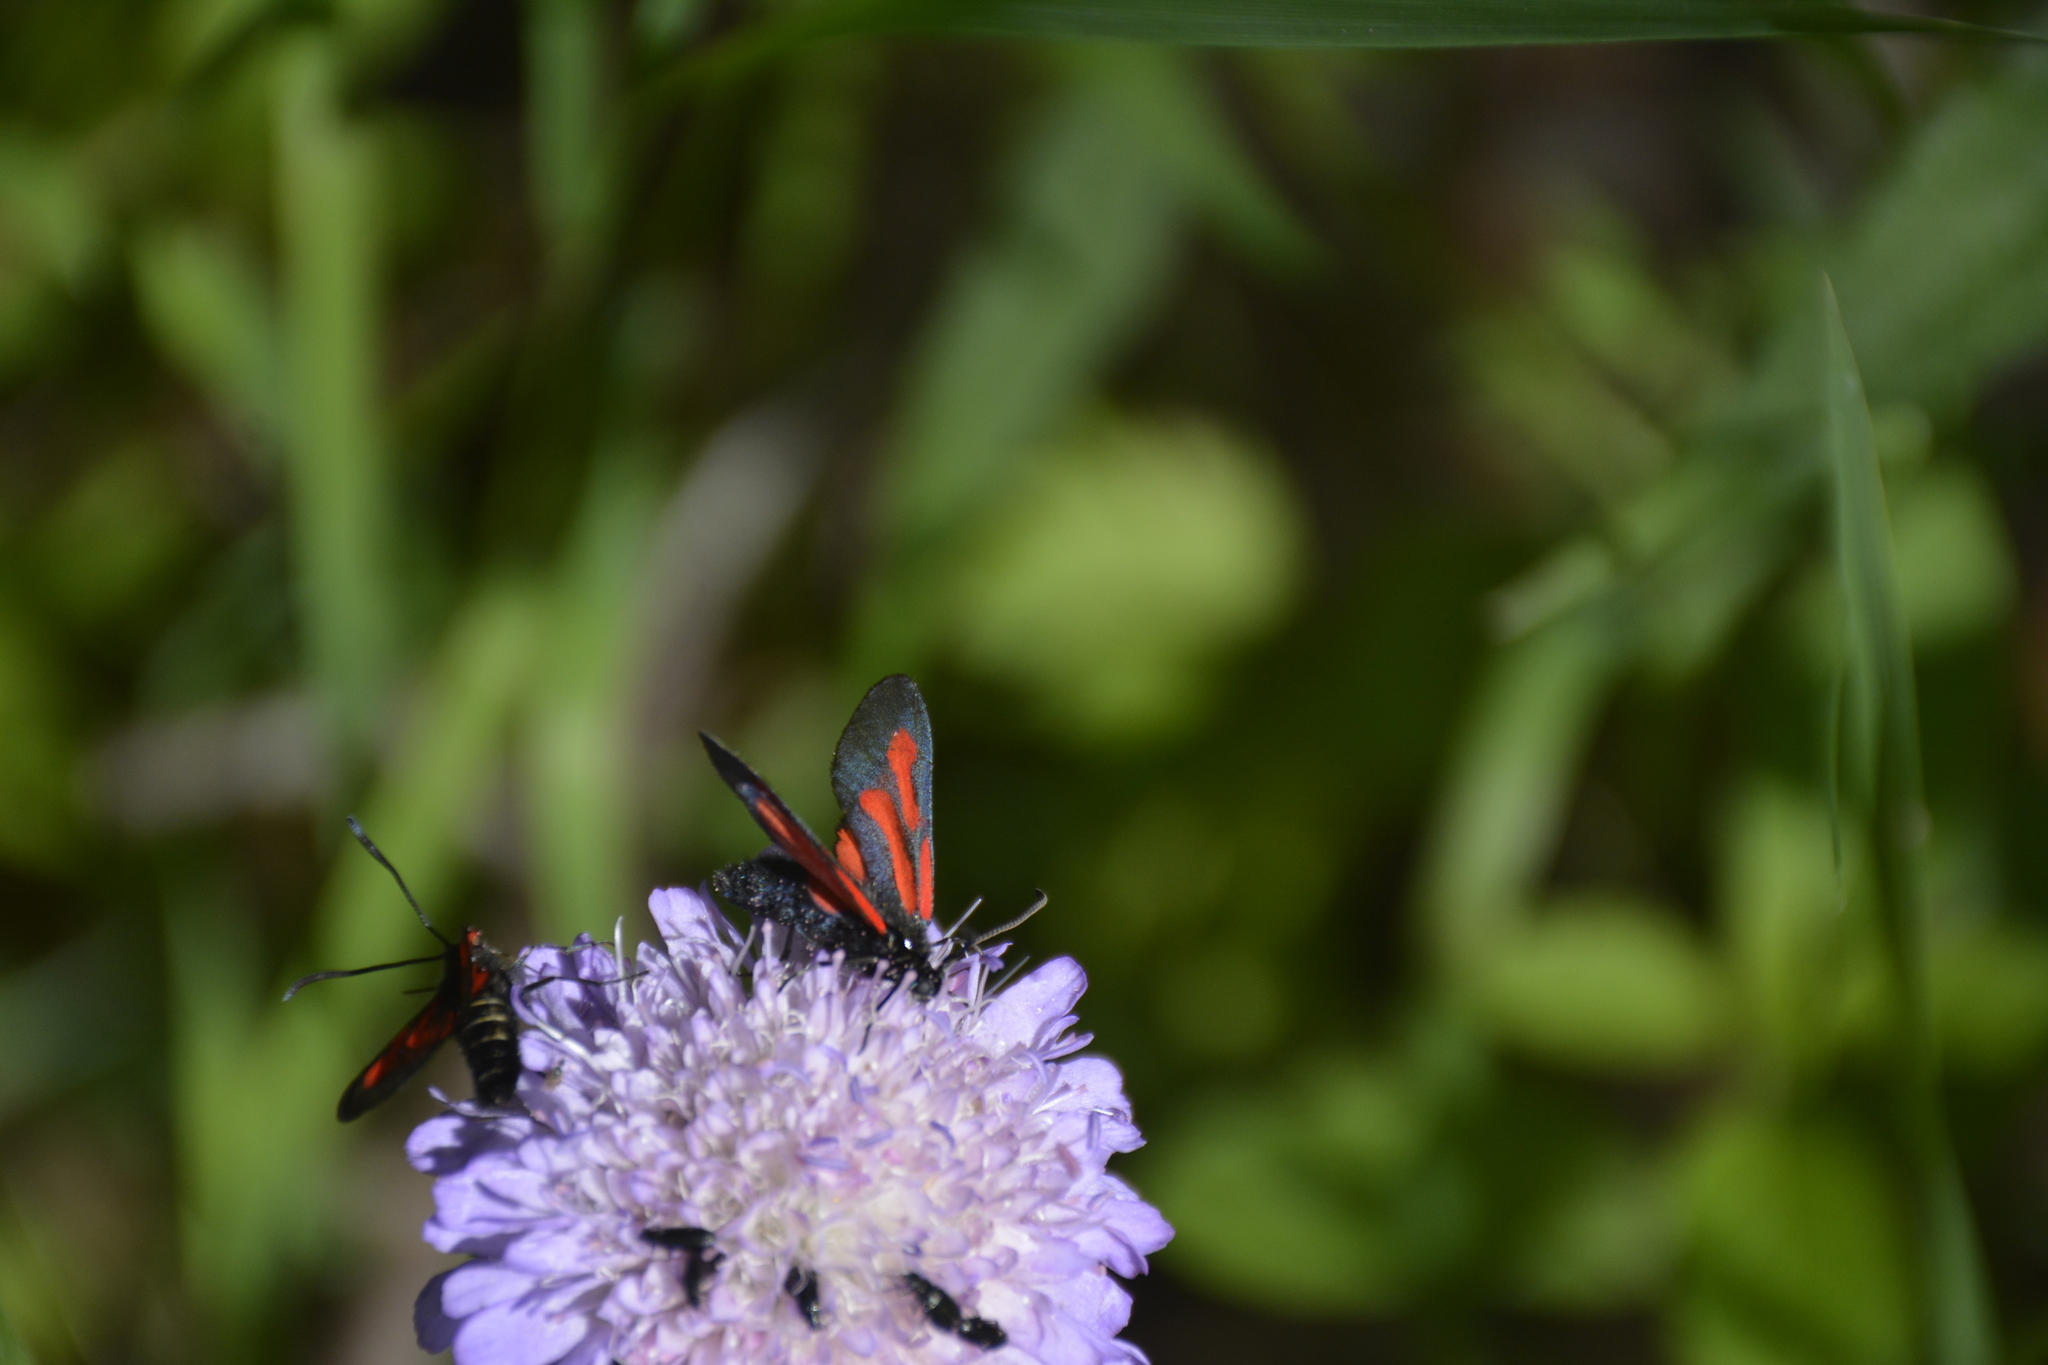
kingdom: Animalia
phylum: Arthropoda
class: Insecta
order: Lepidoptera
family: Zygaenidae
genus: Zygaena
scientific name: Zygaena osterodensis
